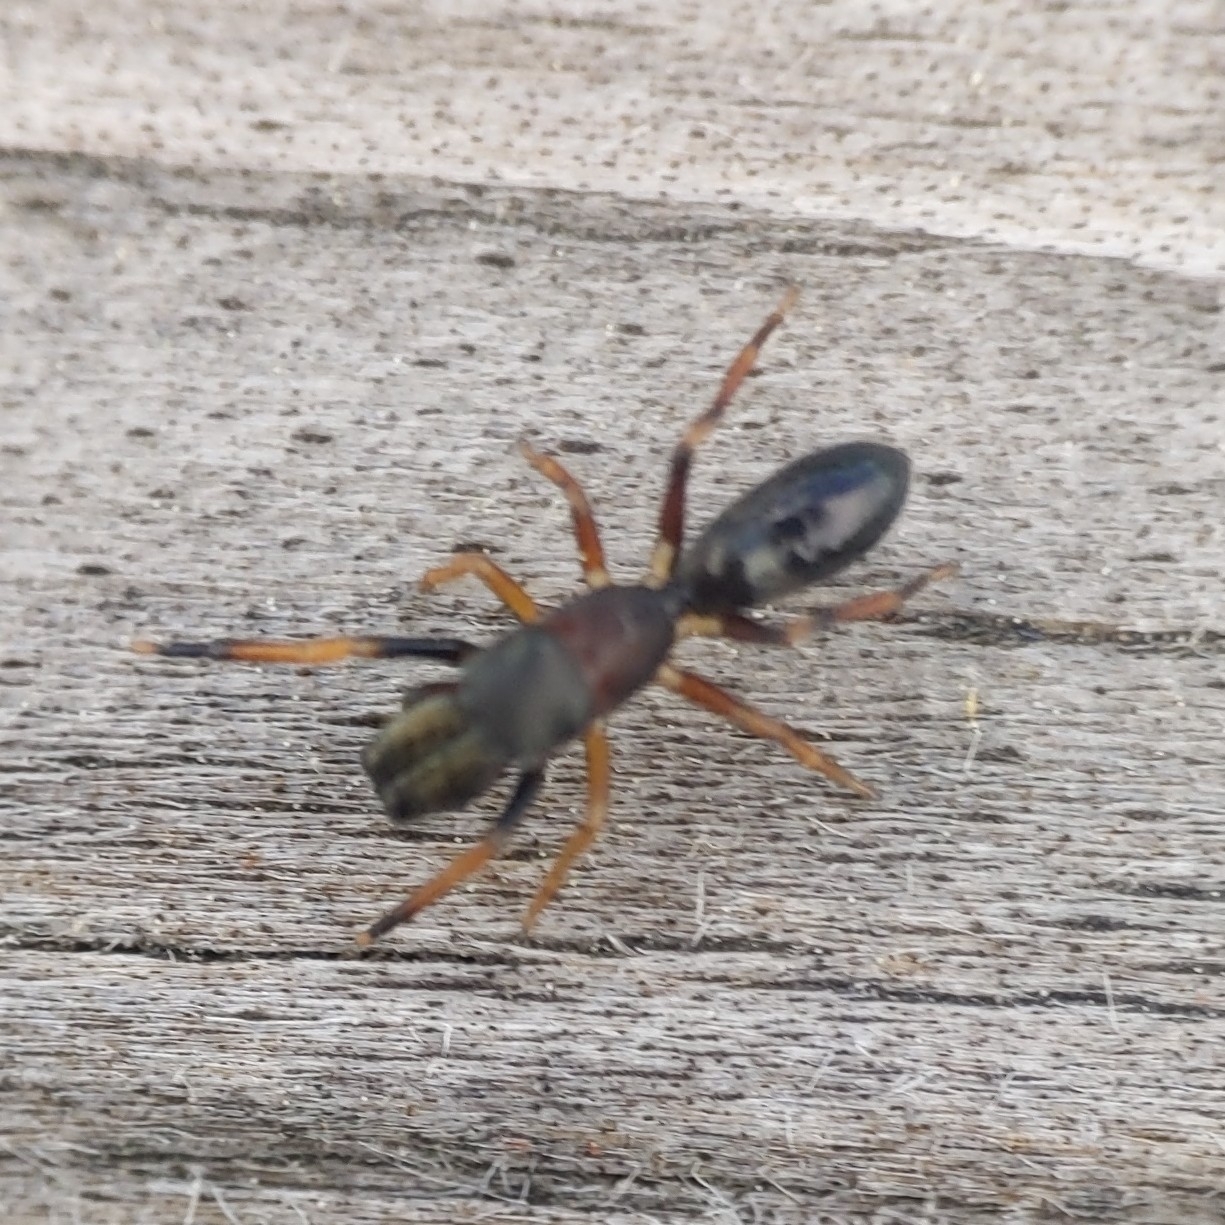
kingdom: Animalia
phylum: Arthropoda
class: Arachnida
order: Araneae
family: Salticidae
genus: Myrmarachne
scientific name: Myrmarachne formicaria
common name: Ant mimic jumping spider
